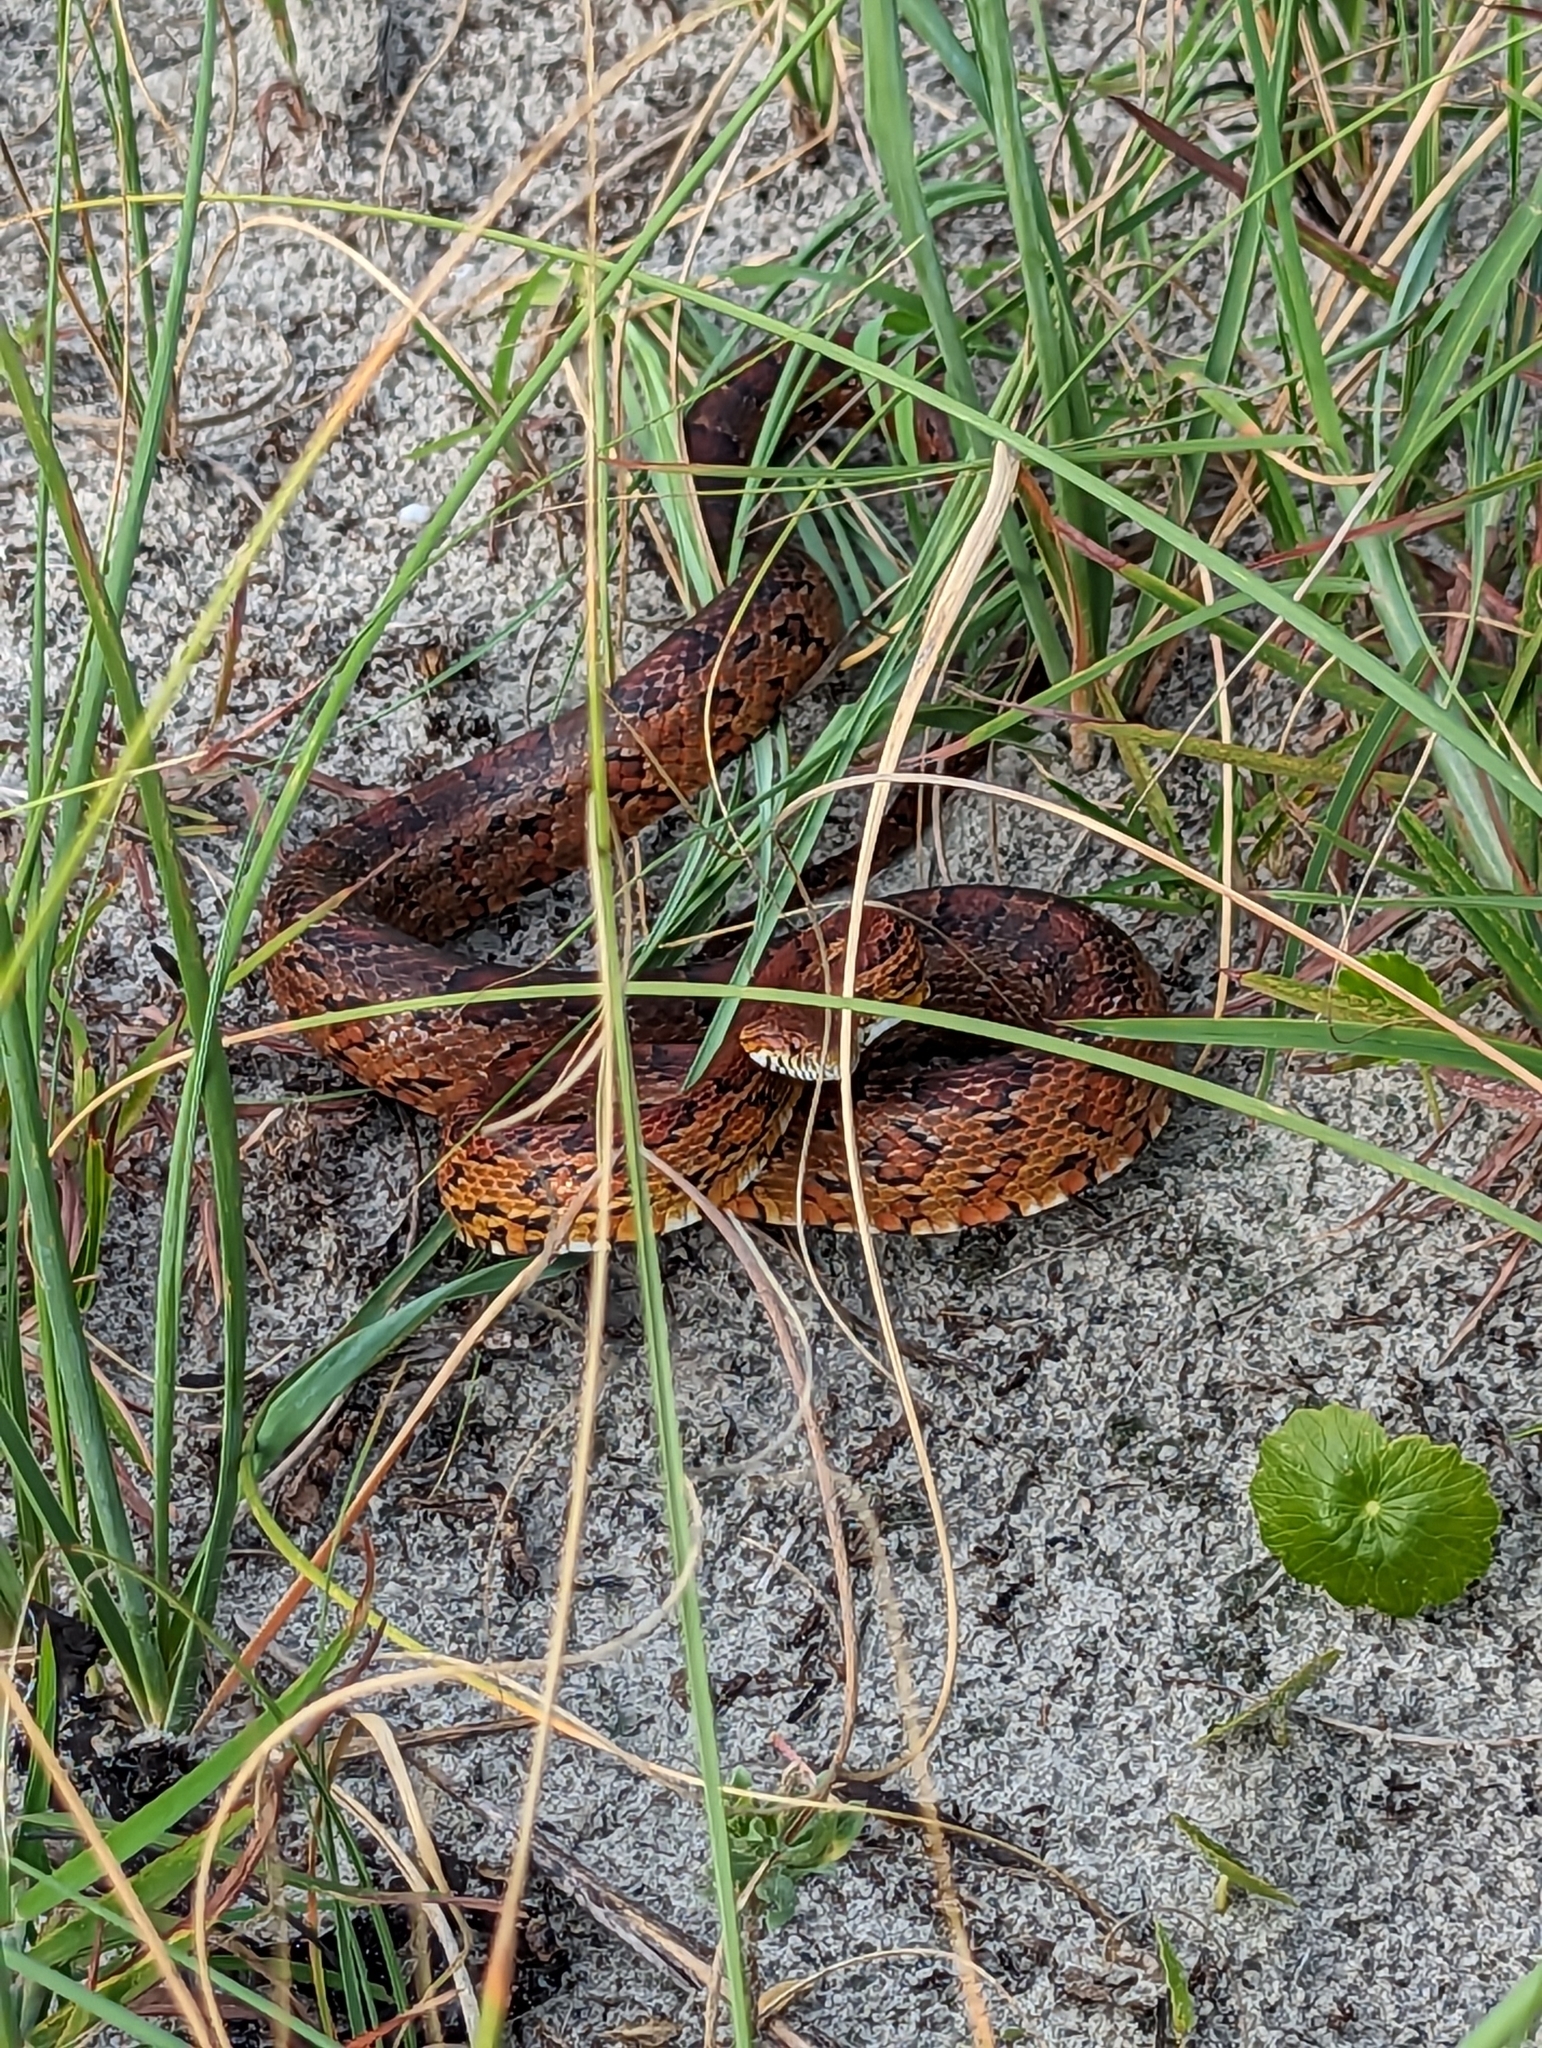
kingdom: Animalia
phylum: Chordata
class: Squamata
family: Colubridae
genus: Pantherophis
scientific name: Pantherophis guttatus
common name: Red cornsnake
